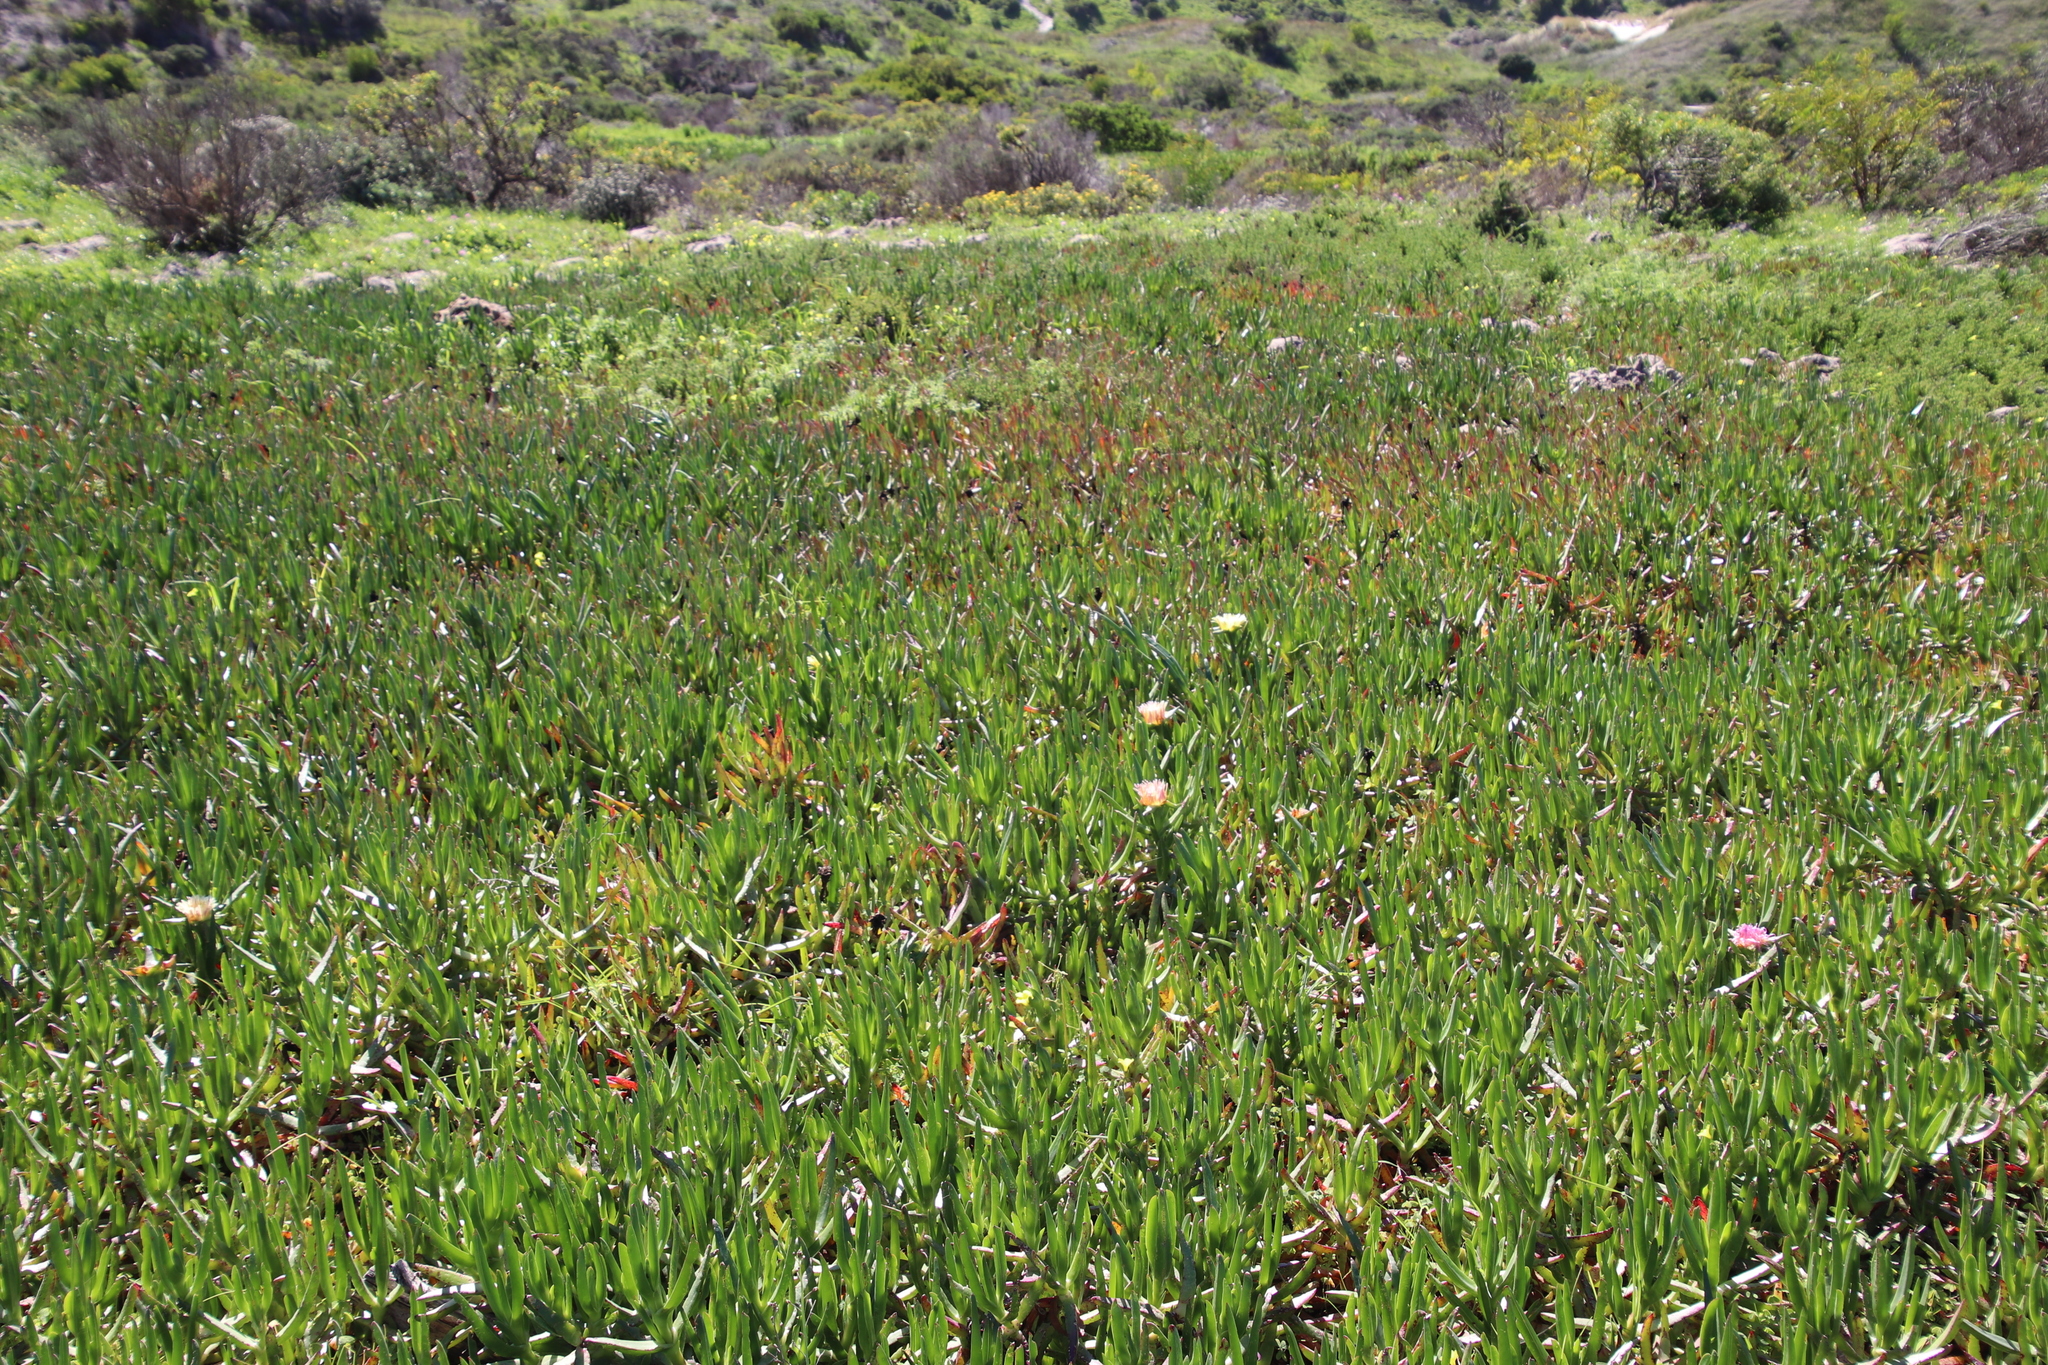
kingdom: Plantae
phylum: Tracheophyta
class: Magnoliopsida
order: Caryophyllales
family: Aizoaceae
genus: Carpobrotus
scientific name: Carpobrotus edulis
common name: Hottentot-fig
